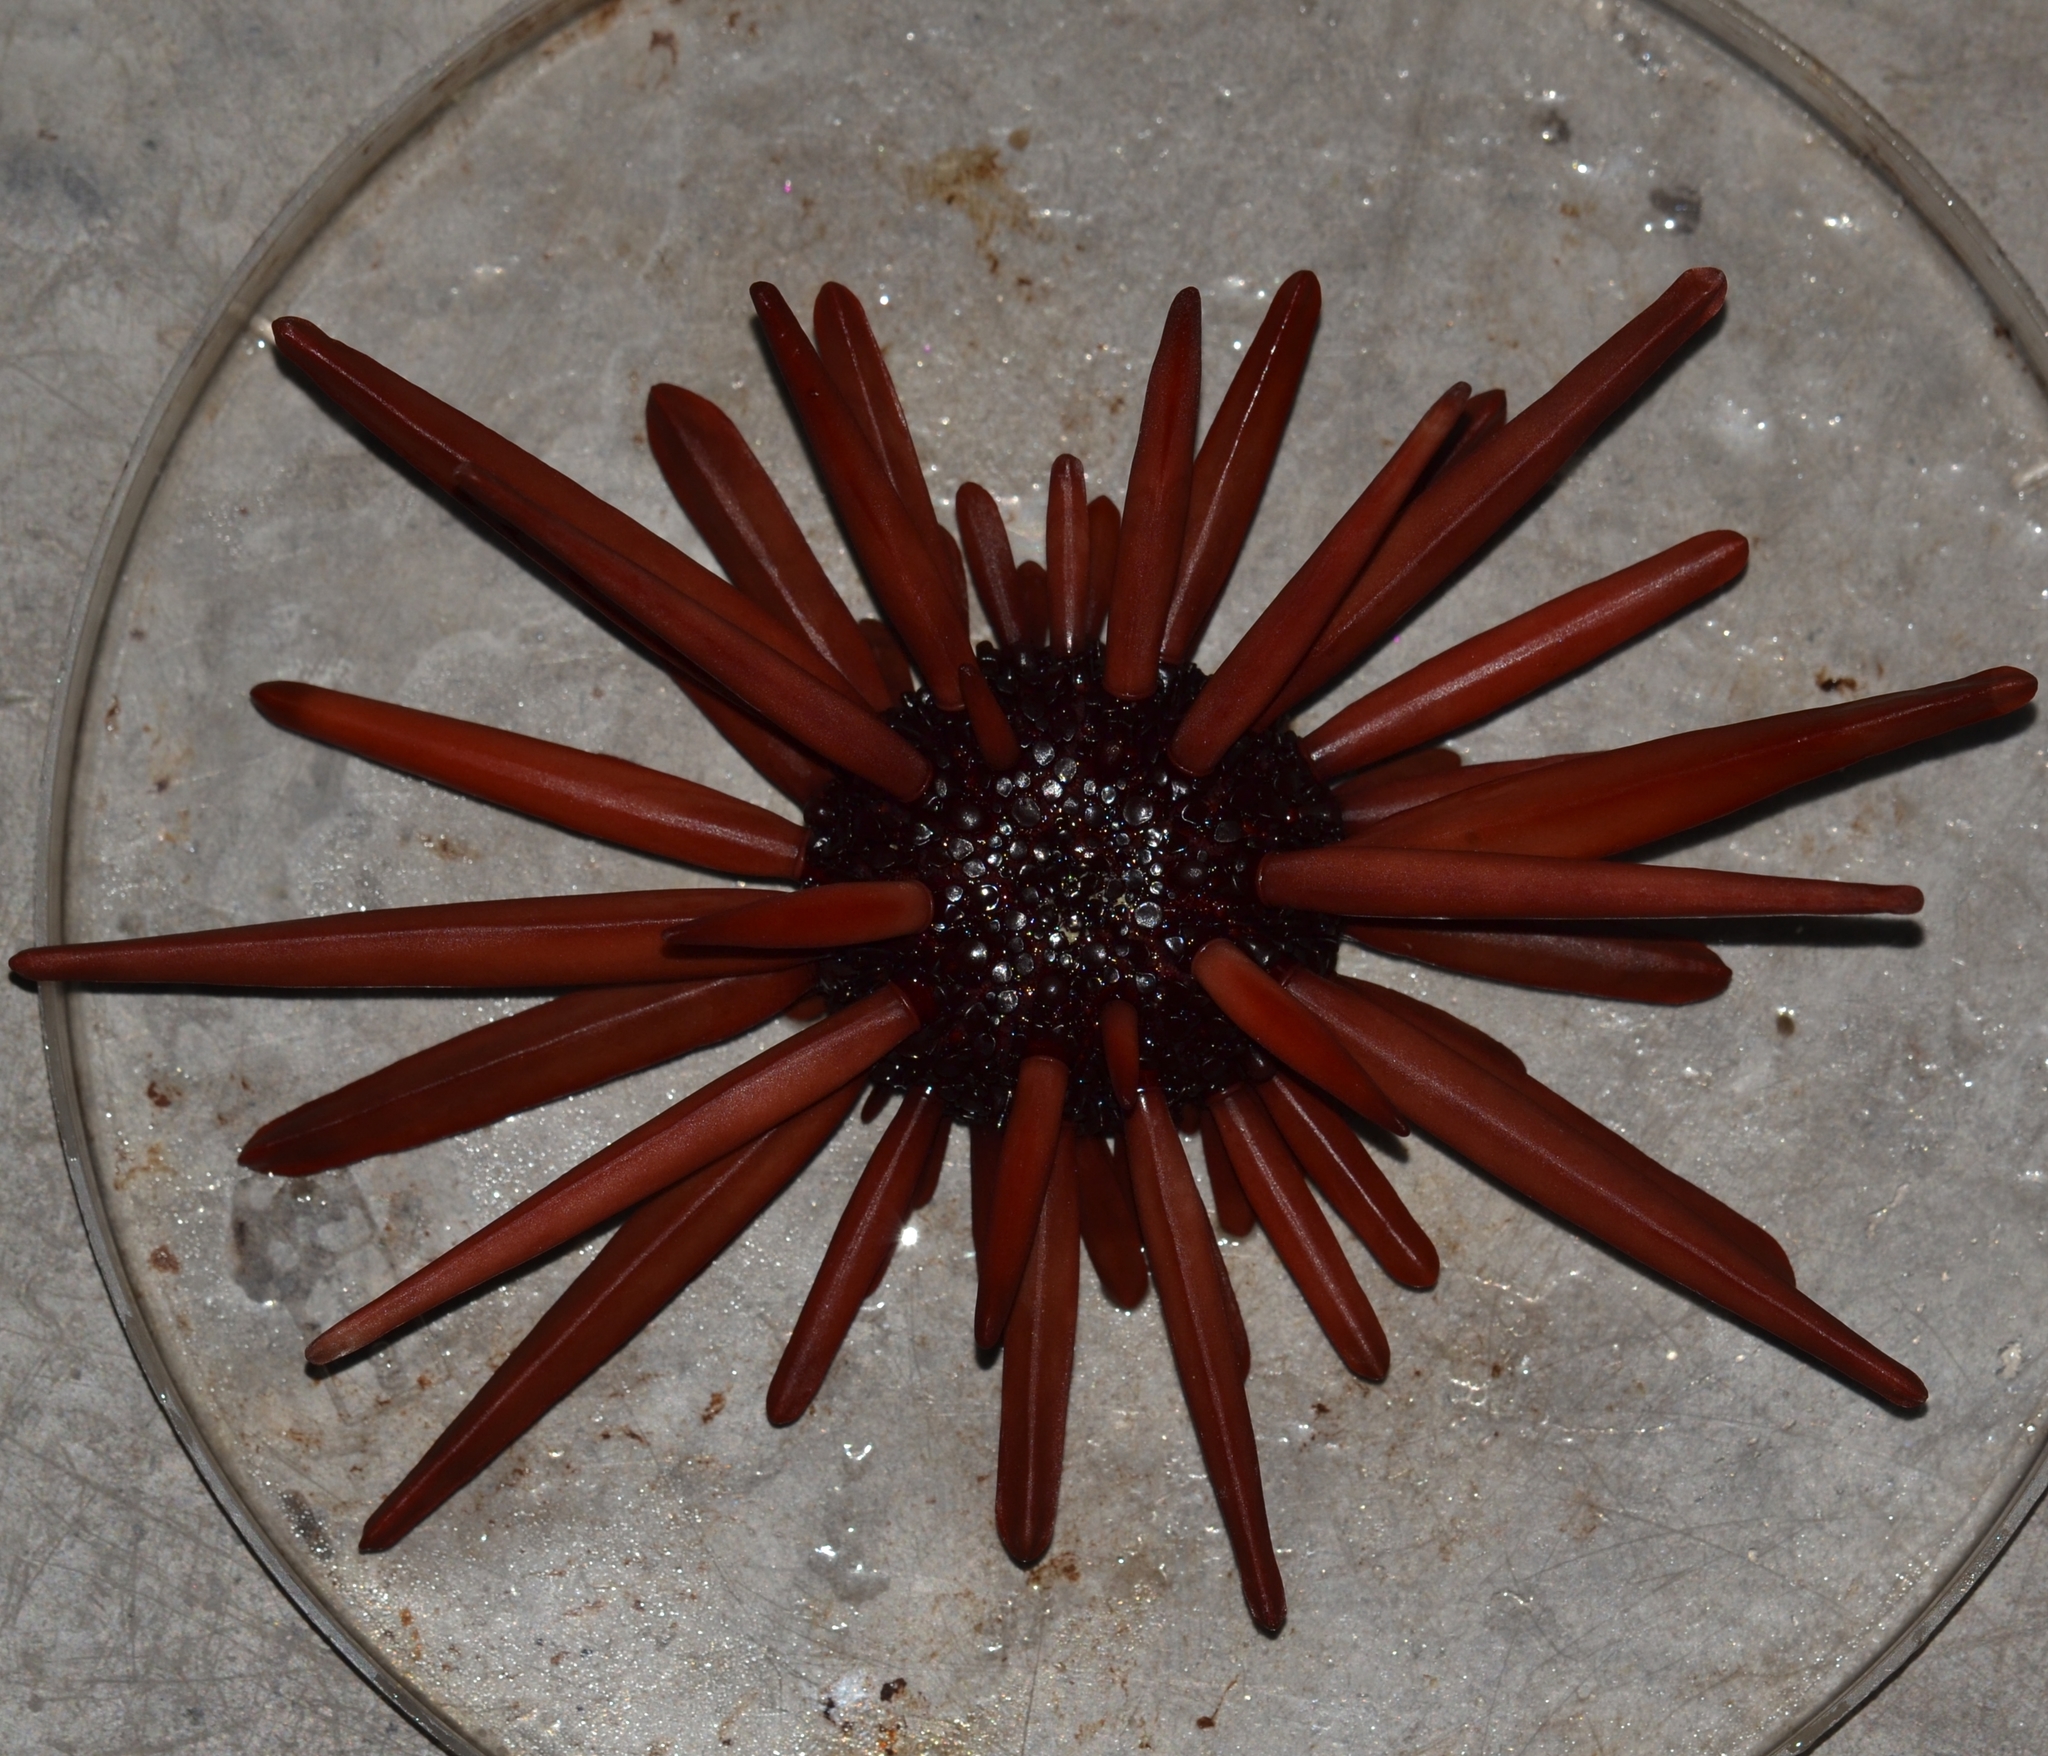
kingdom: Animalia
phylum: Echinodermata
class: Echinoidea
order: Camarodonta
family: Echinometridae
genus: Heterocentrotus
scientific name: Heterocentrotus mamillatus
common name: Slate pencil urchin
